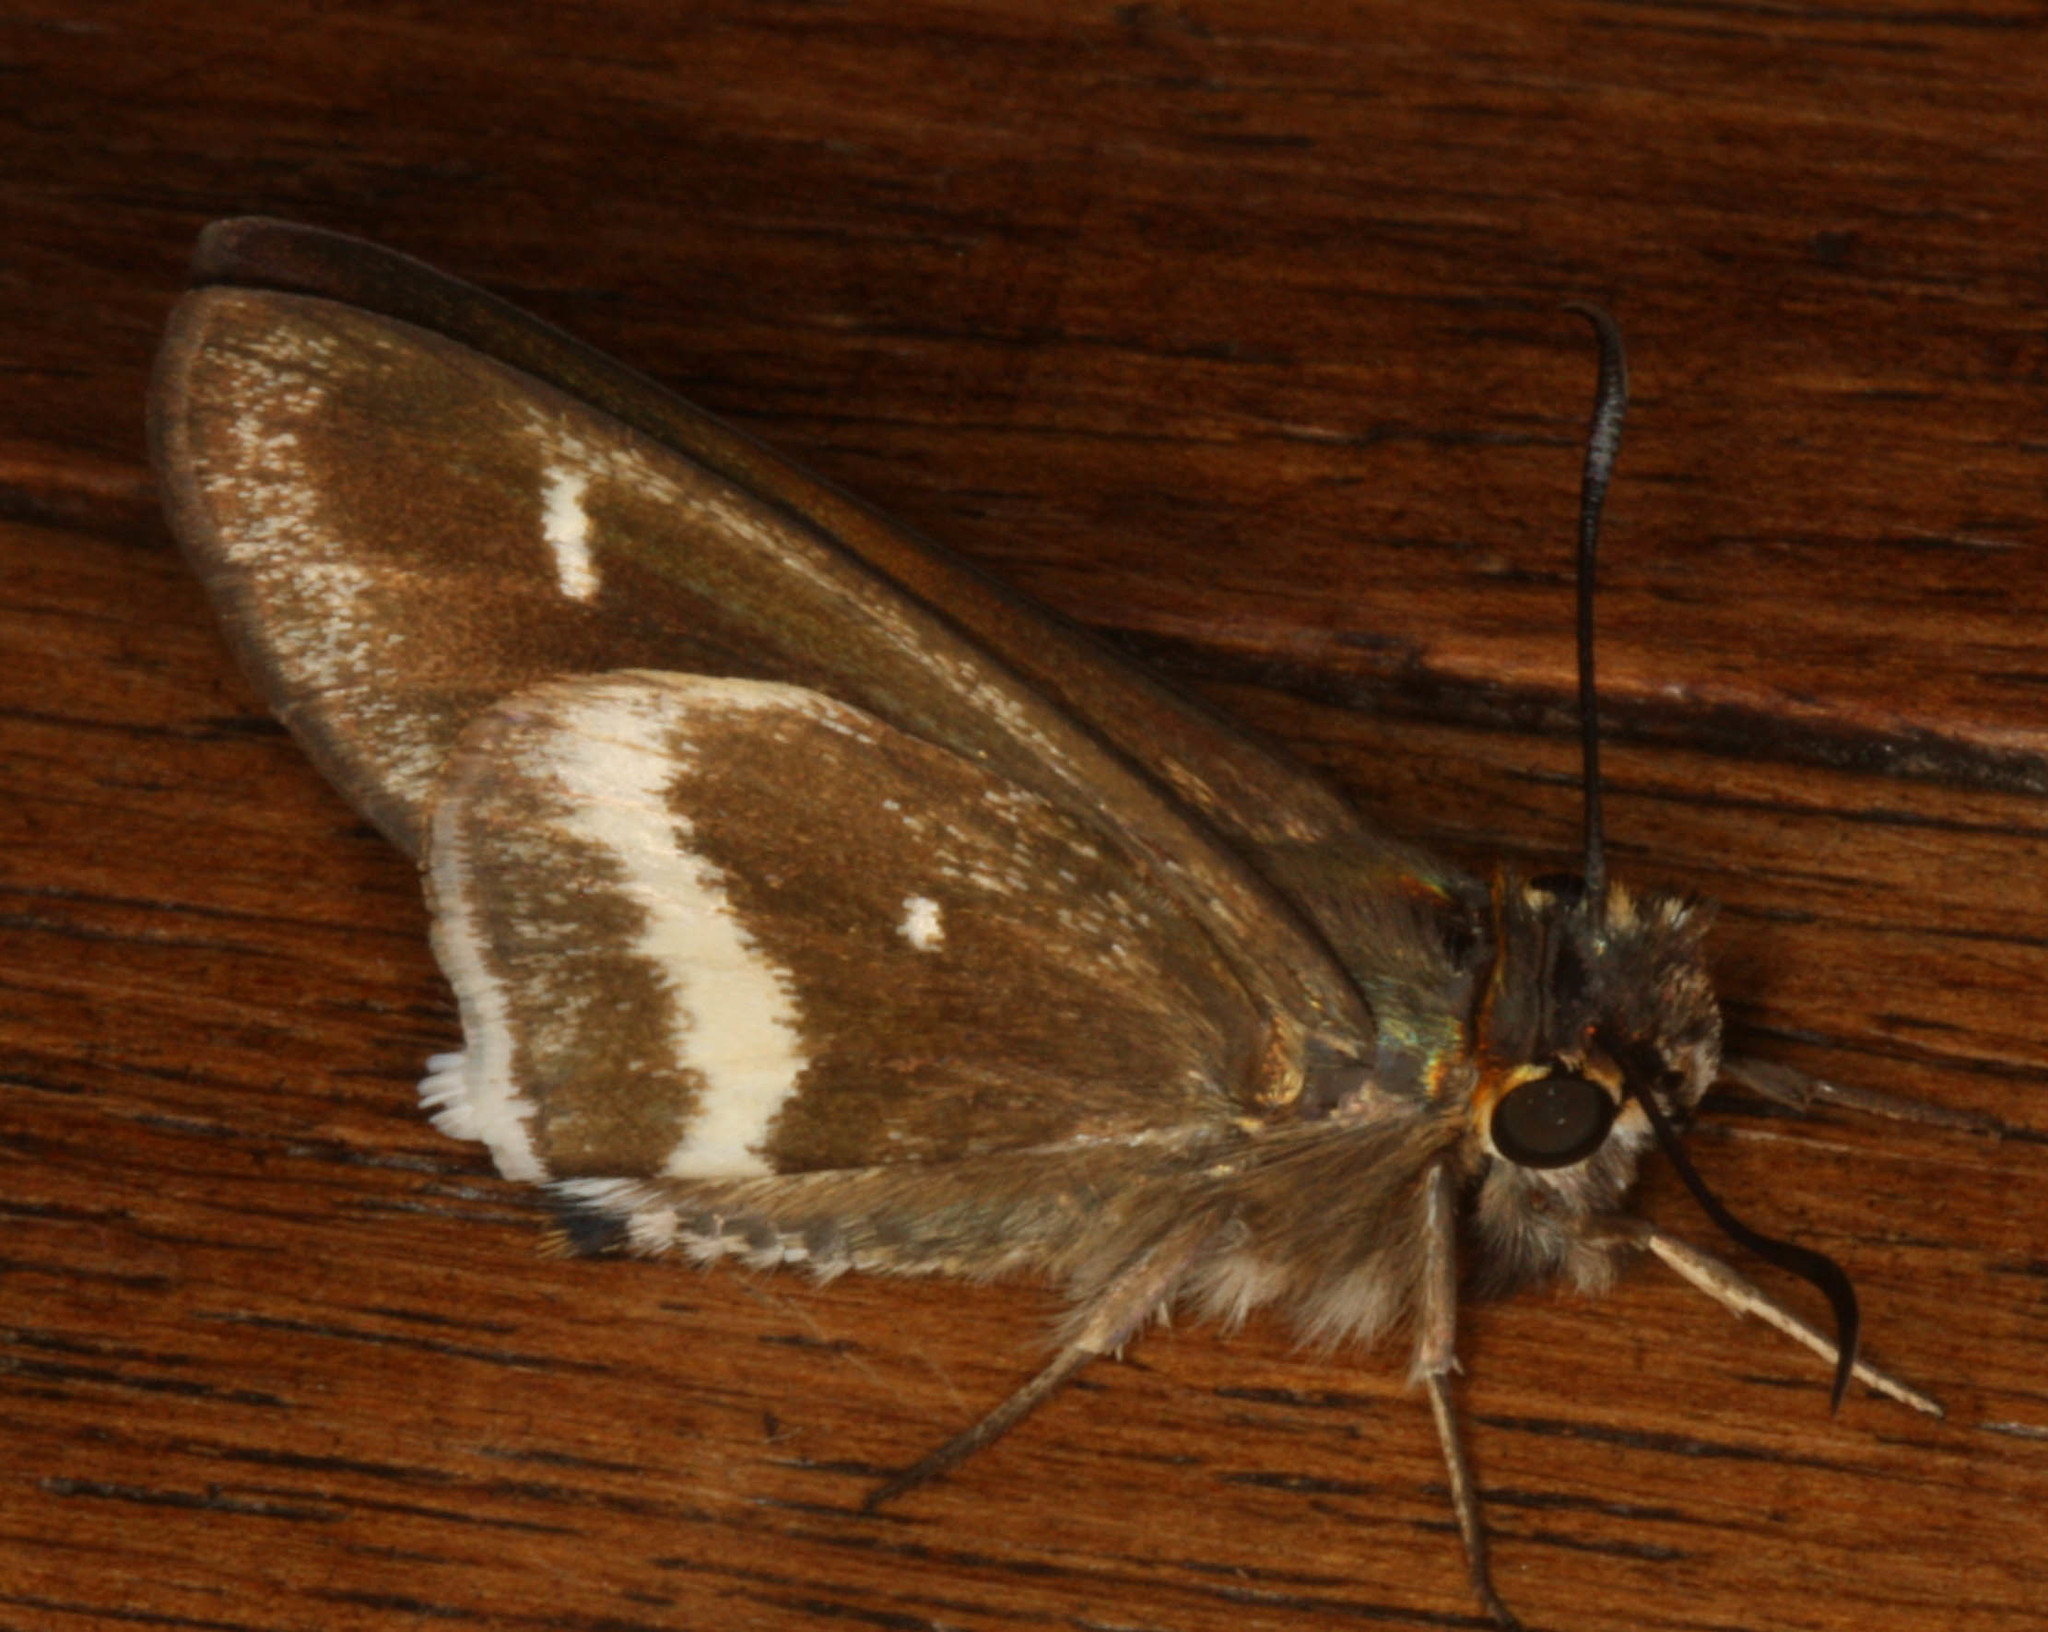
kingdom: Animalia
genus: Tekliades
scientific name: Tekliades
